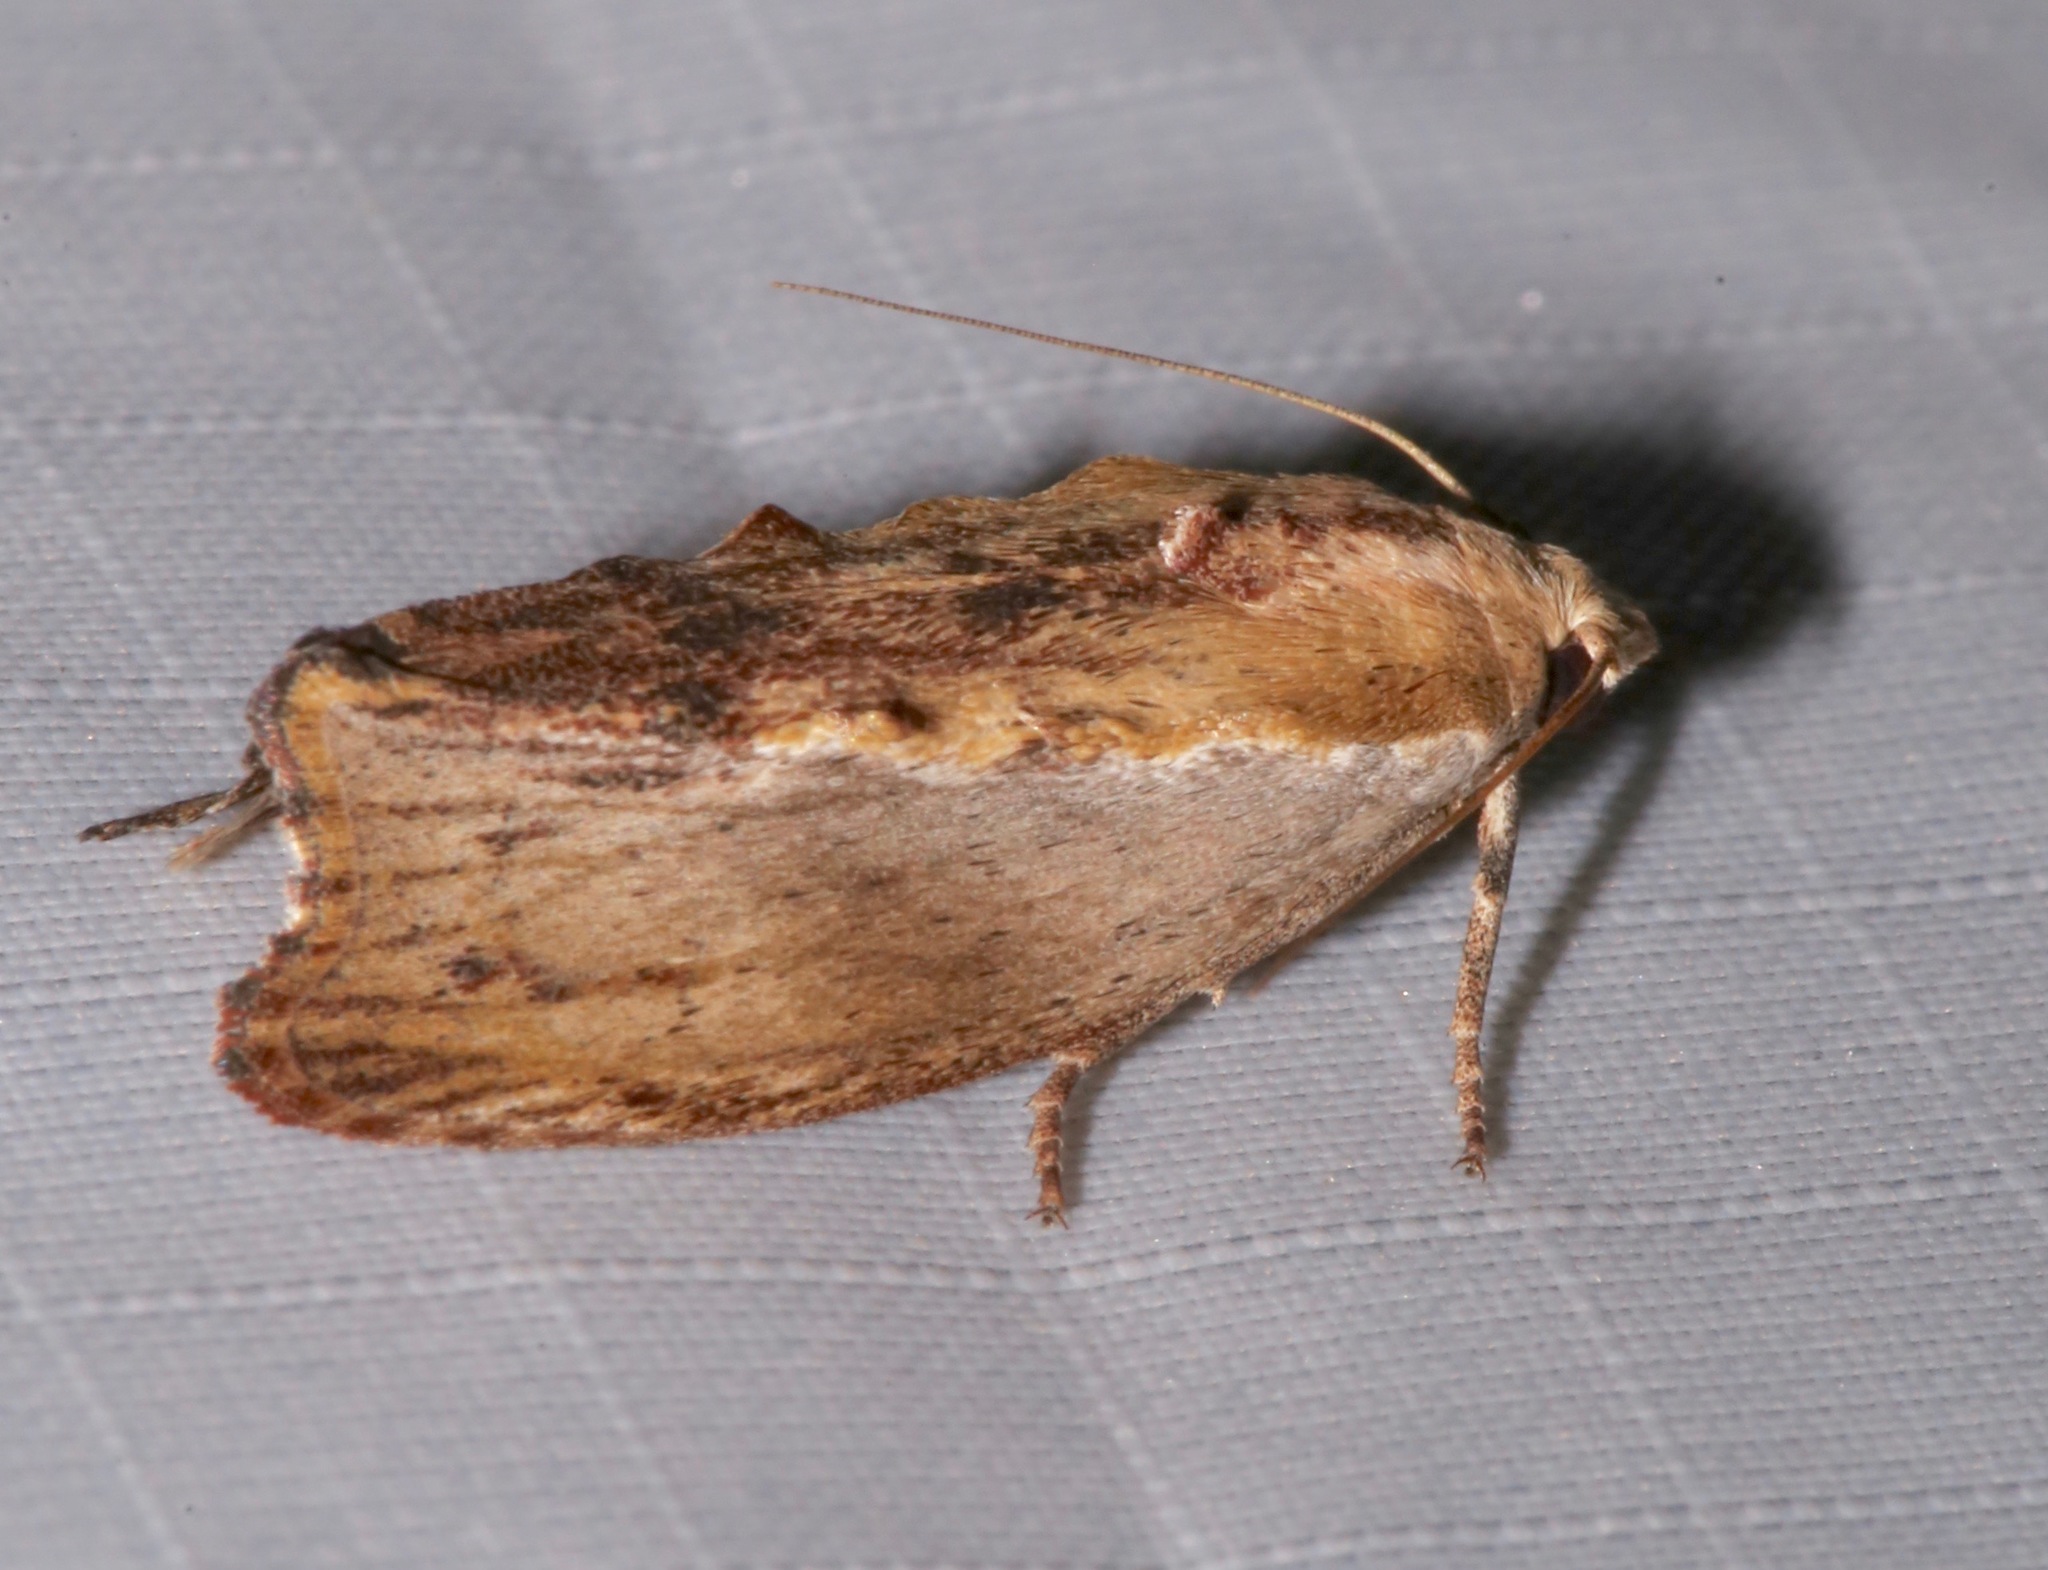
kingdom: Animalia
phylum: Arthropoda
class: Insecta
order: Lepidoptera
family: Pyralidae
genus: Galleria
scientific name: Galleria mellonella
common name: Greater wax moth
